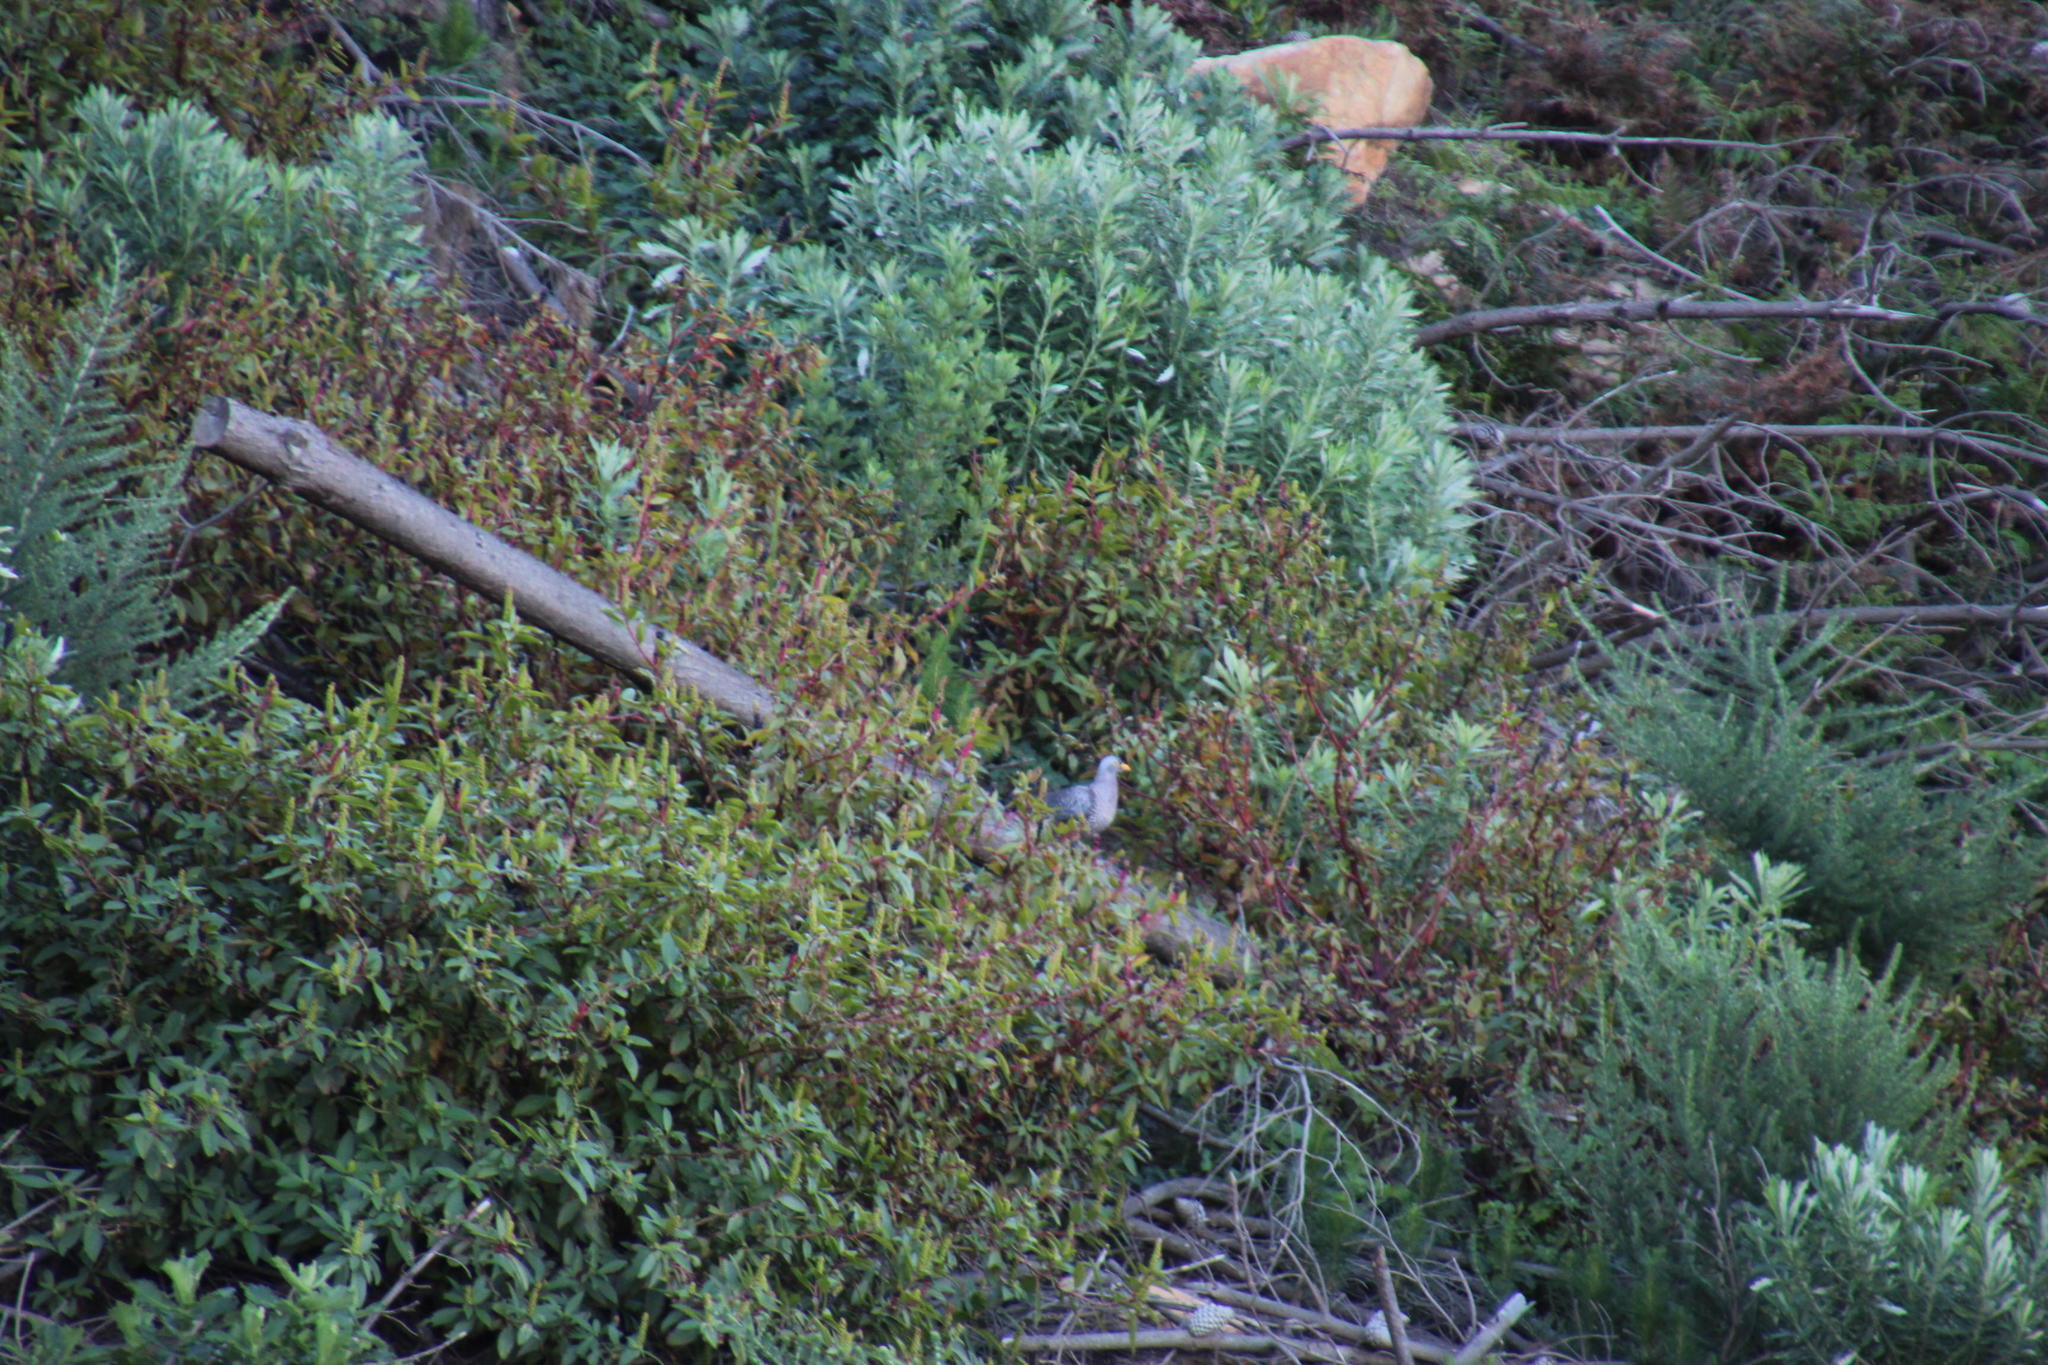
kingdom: Plantae
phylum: Tracheophyta
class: Magnoliopsida
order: Caryophyllales
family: Phytolaccaceae
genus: Phytolacca
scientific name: Phytolacca icosandra
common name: Button pokeweed
